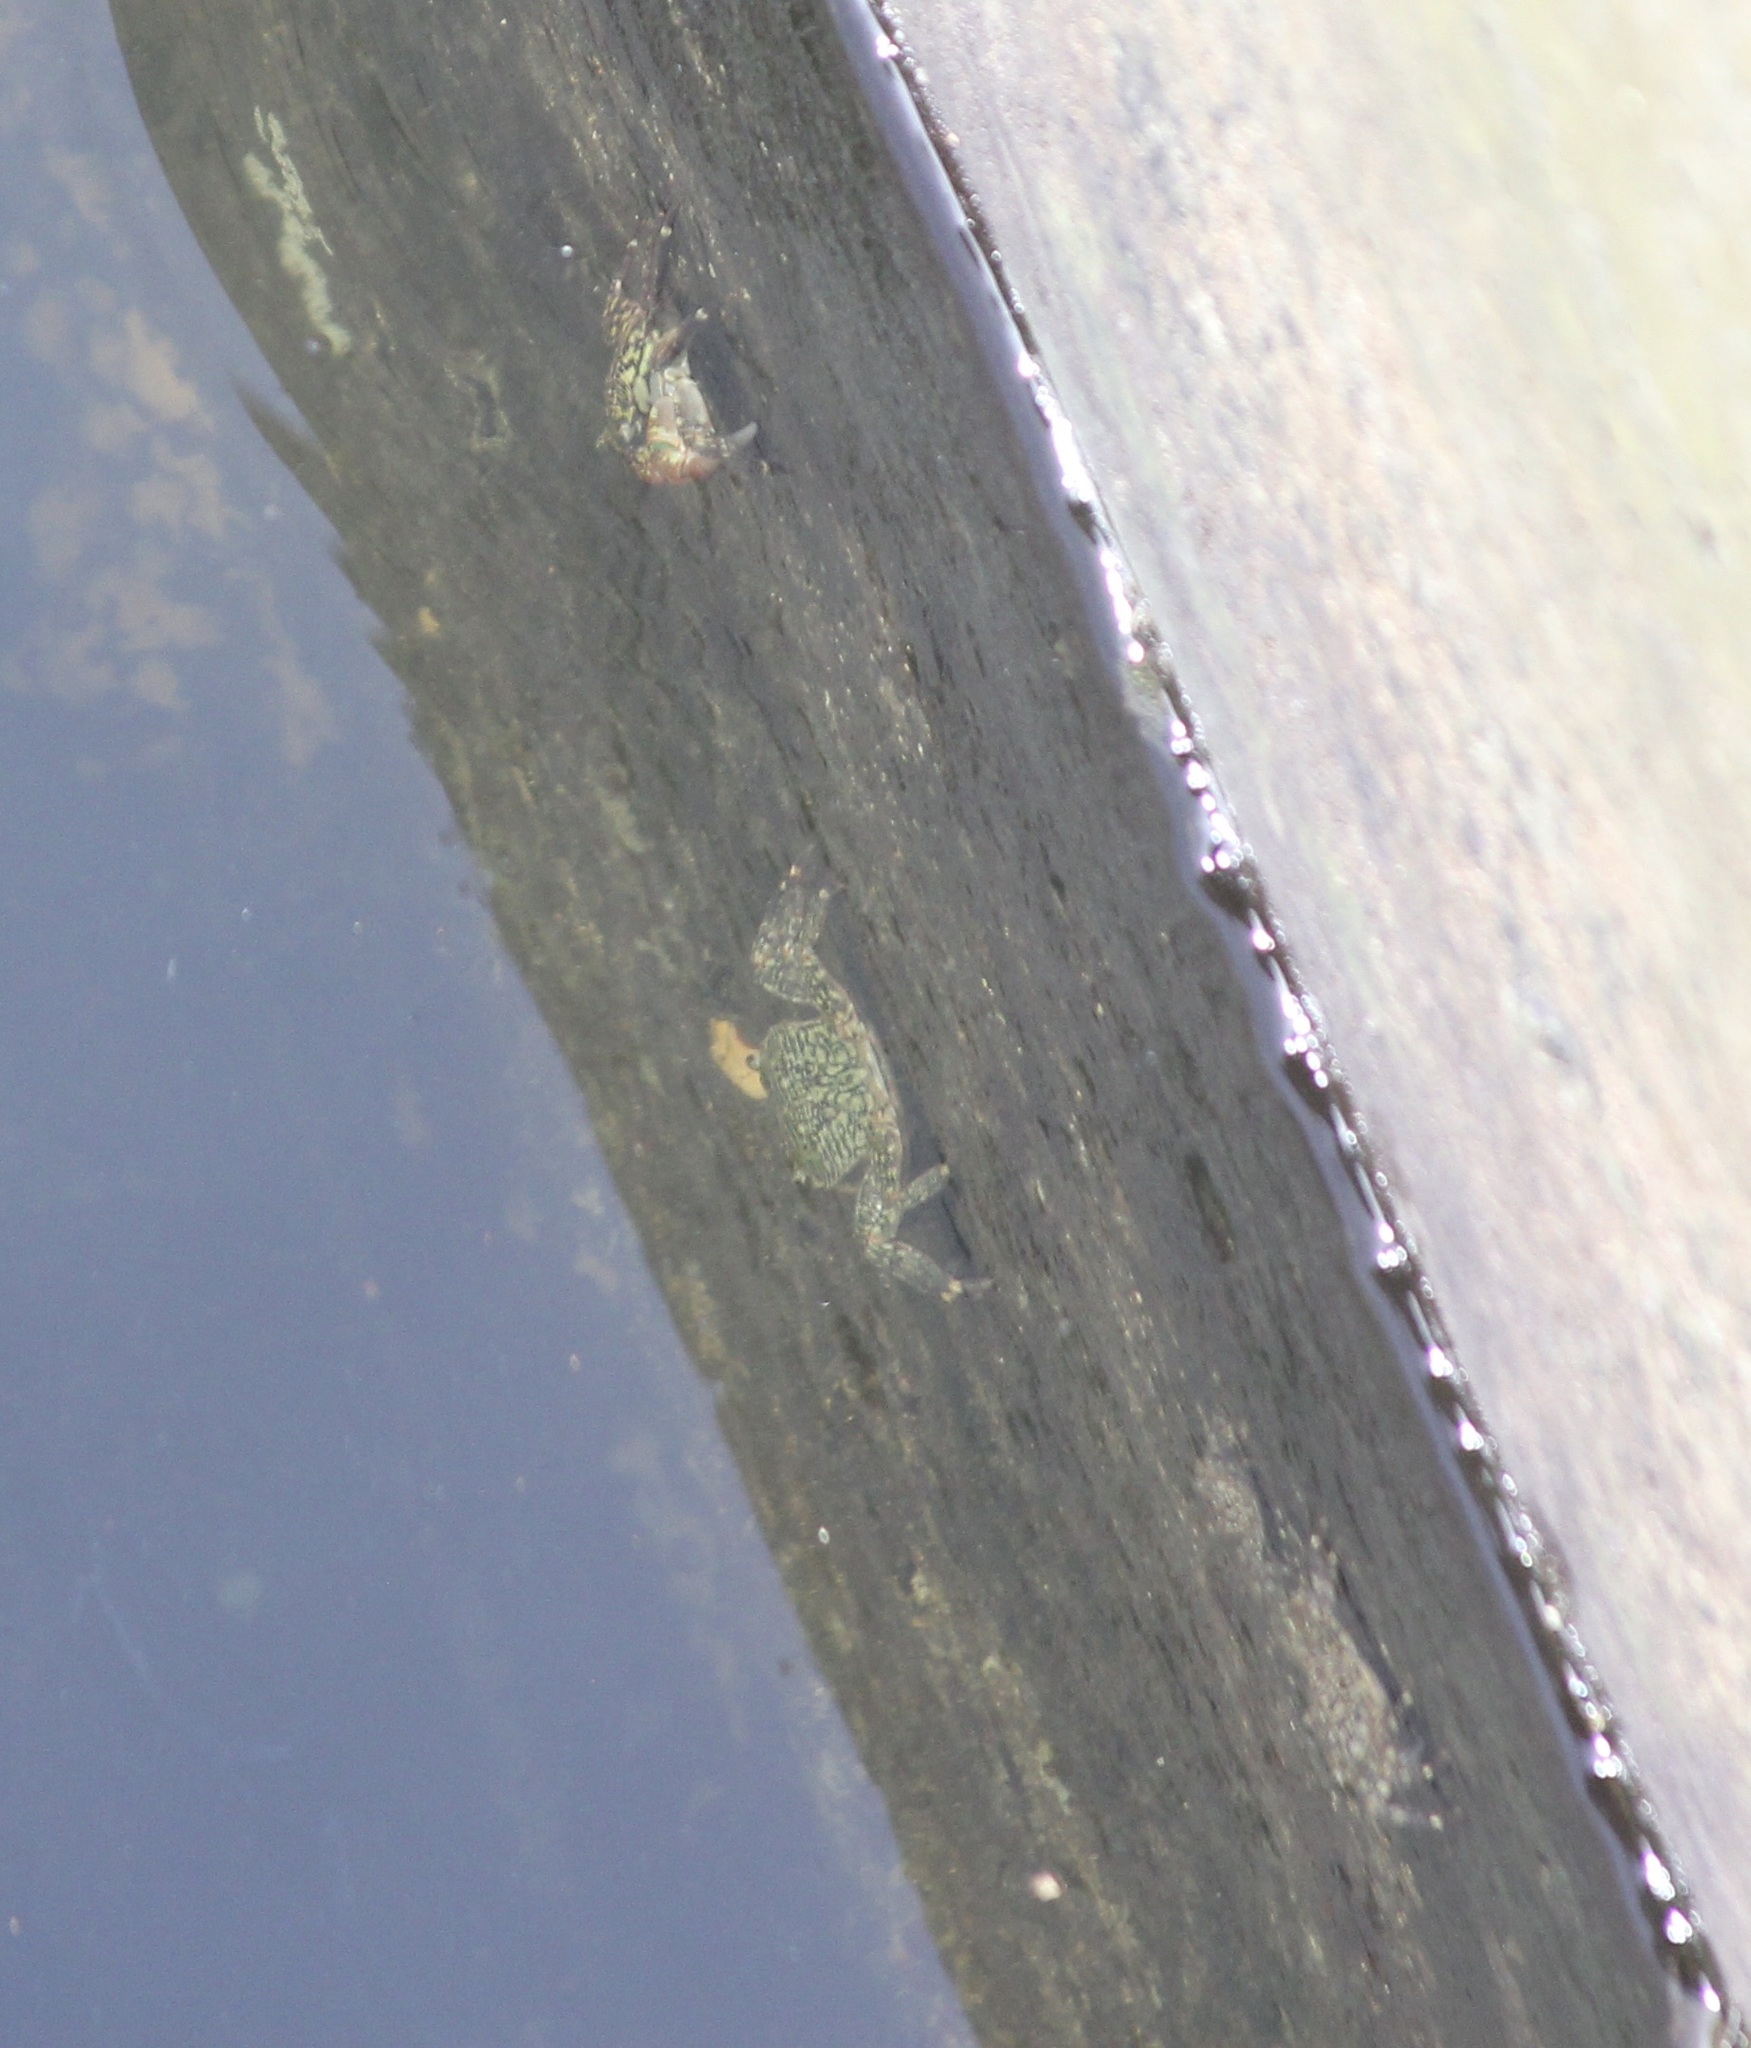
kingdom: Animalia
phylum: Arthropoda
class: Malacostraca
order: Decapoda
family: Grapsidae
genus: Pachygrapsus
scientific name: Pachygrapsus crassipes
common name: Striped shore crab
